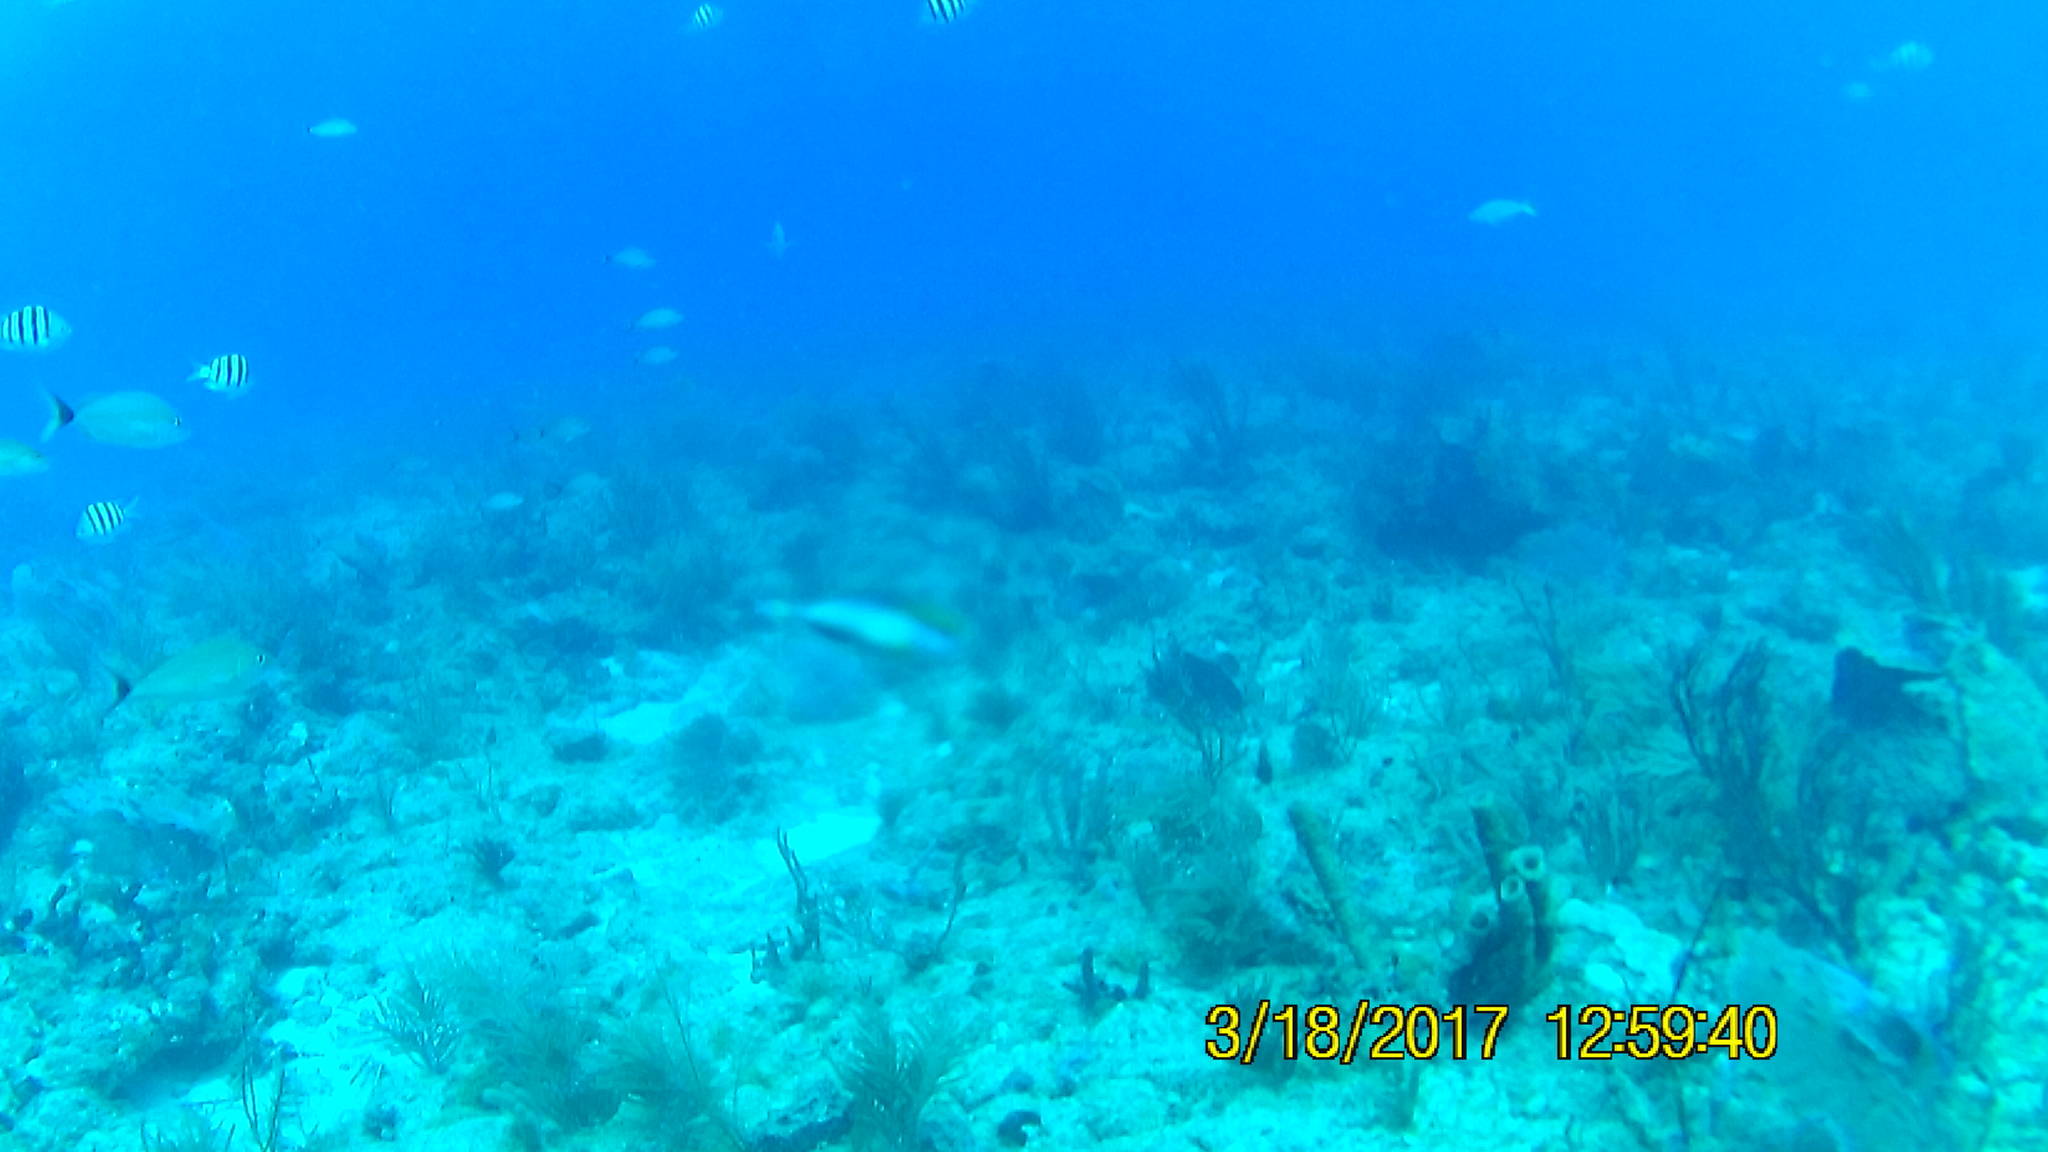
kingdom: Animalia
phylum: Chordata
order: Perciformes
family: Pomacentridae
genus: Abudefduf
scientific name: Abudefduf saxatilis
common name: Sergeant major
